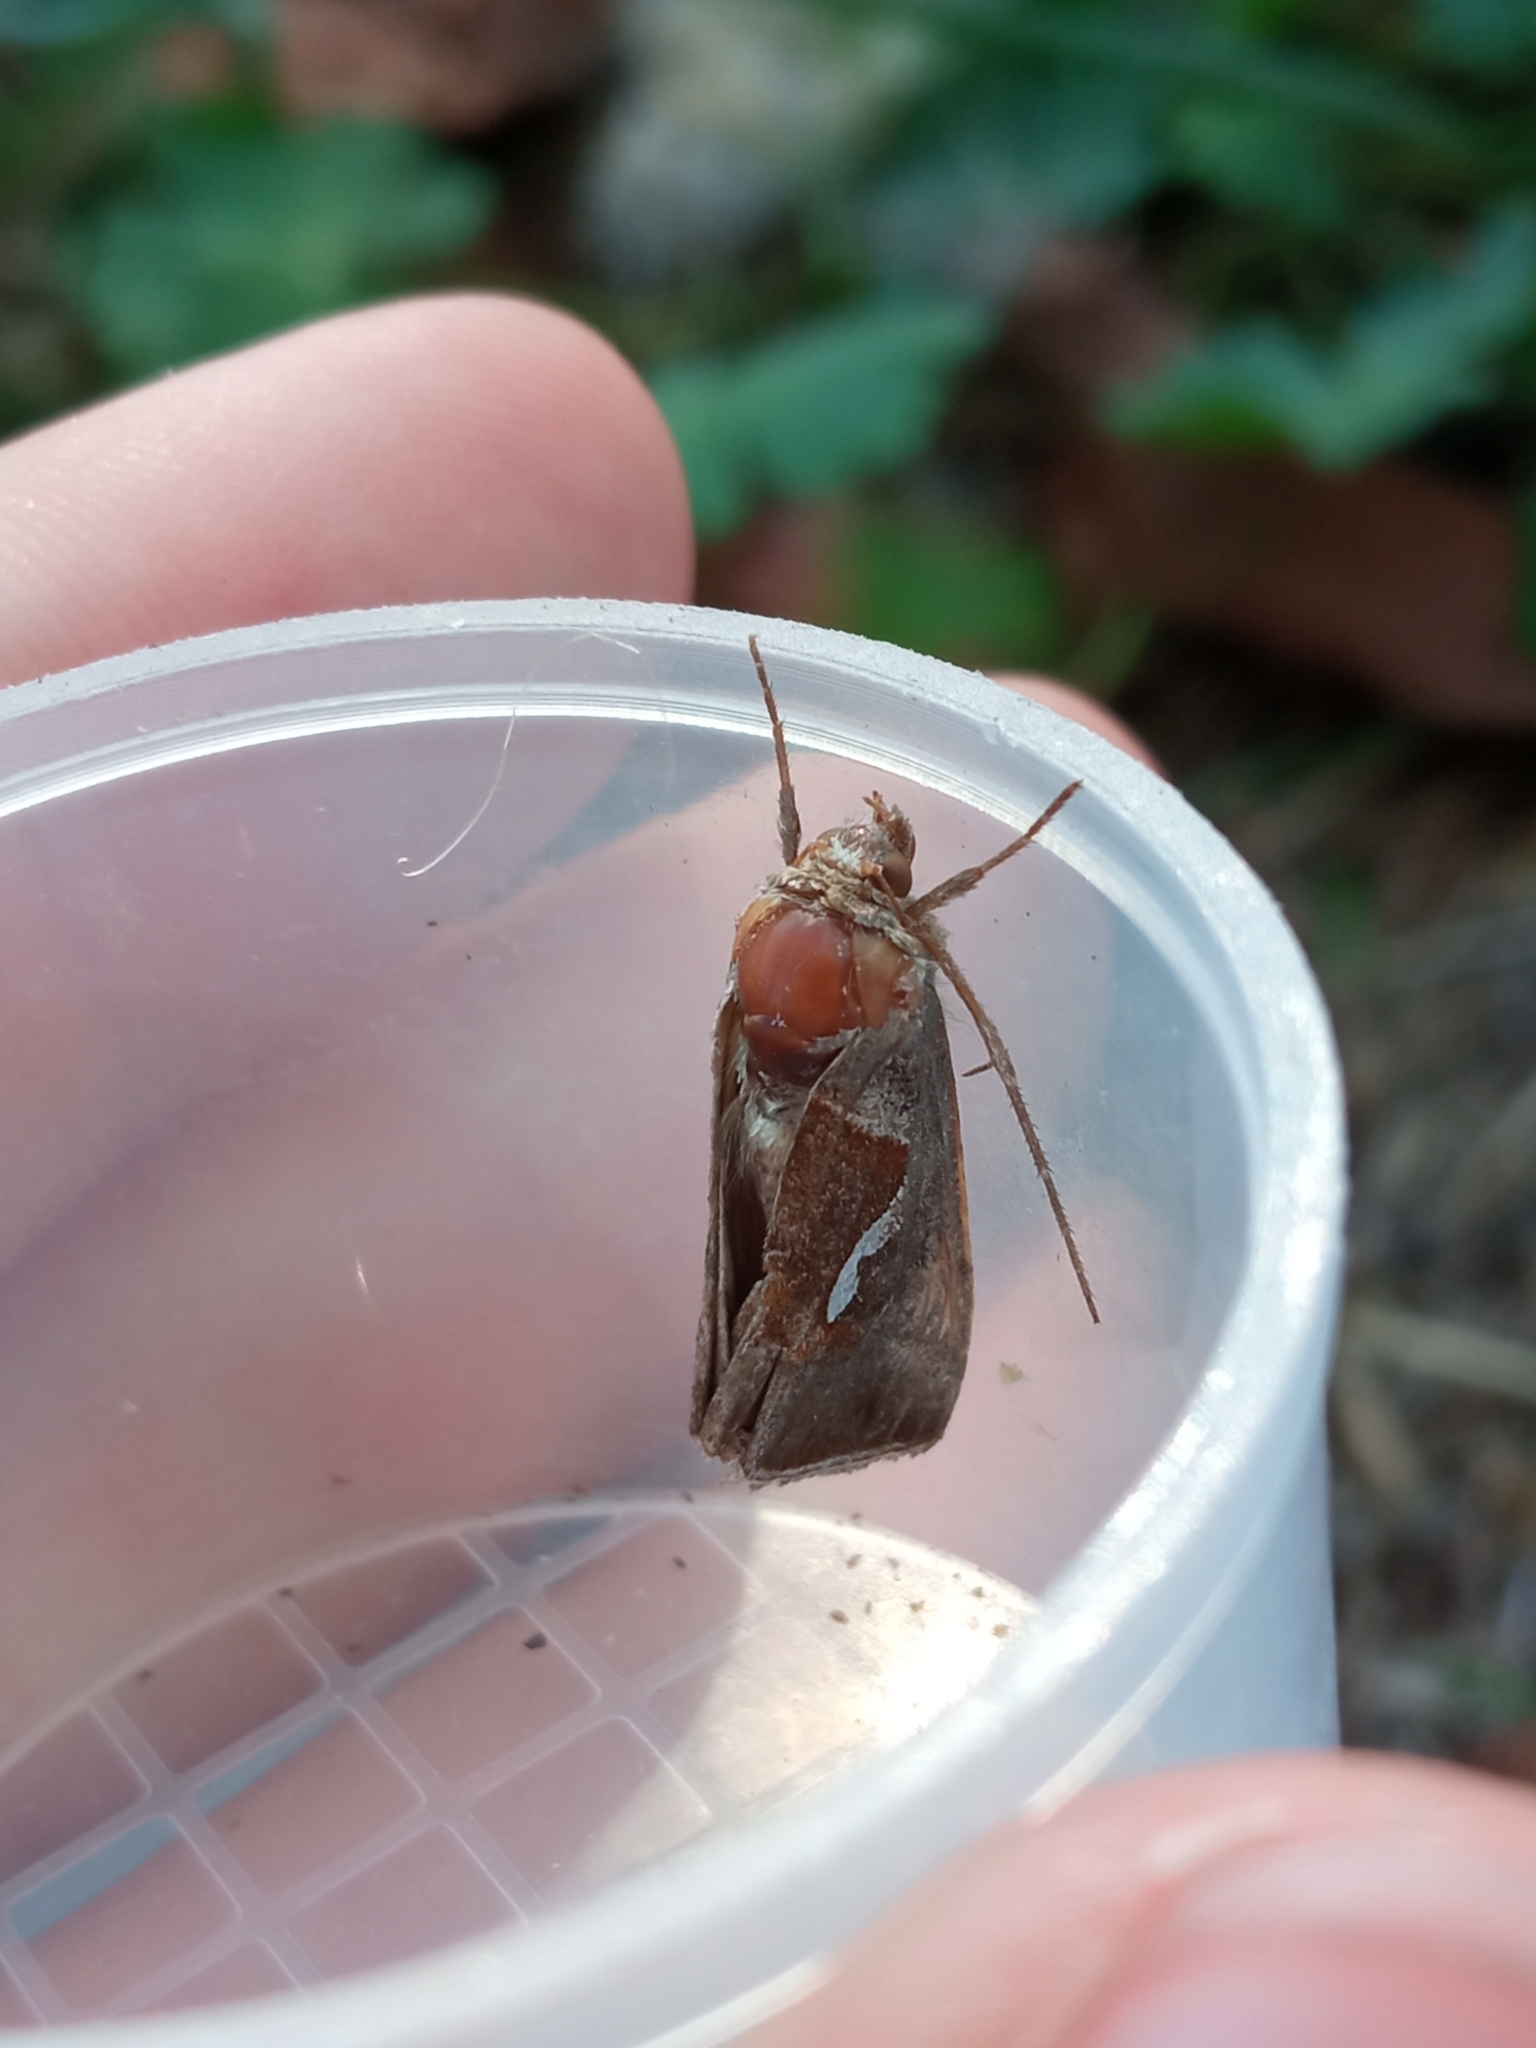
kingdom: Animalia
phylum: Arthropoda
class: Insecta
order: Lepidoptera
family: Noctuidae
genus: Macdunnoughia
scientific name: Macdunnoughia confusa
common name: Dewick's plusia
